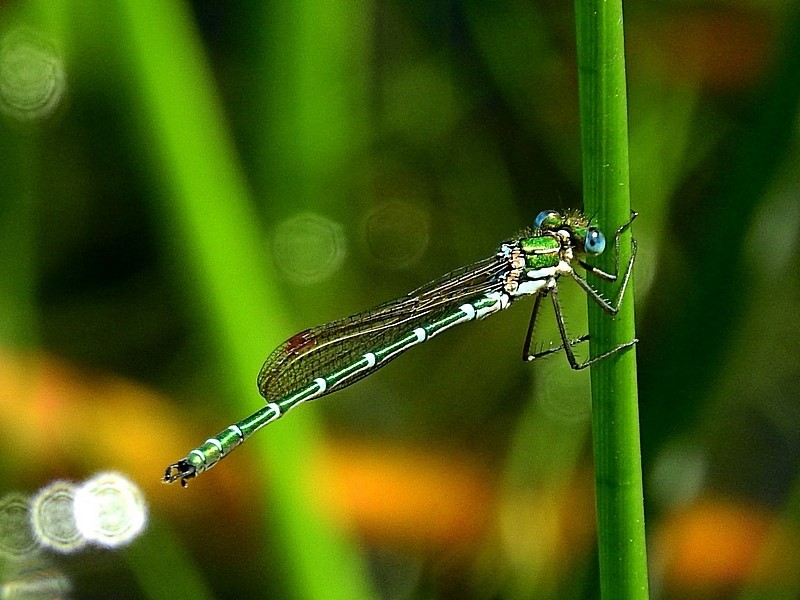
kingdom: Animalia
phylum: Arthropoda
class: Insecta
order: Odonata
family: Lestidae
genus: Austrolestes
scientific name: Austrolestes cingulatus
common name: Metallic ringtail
